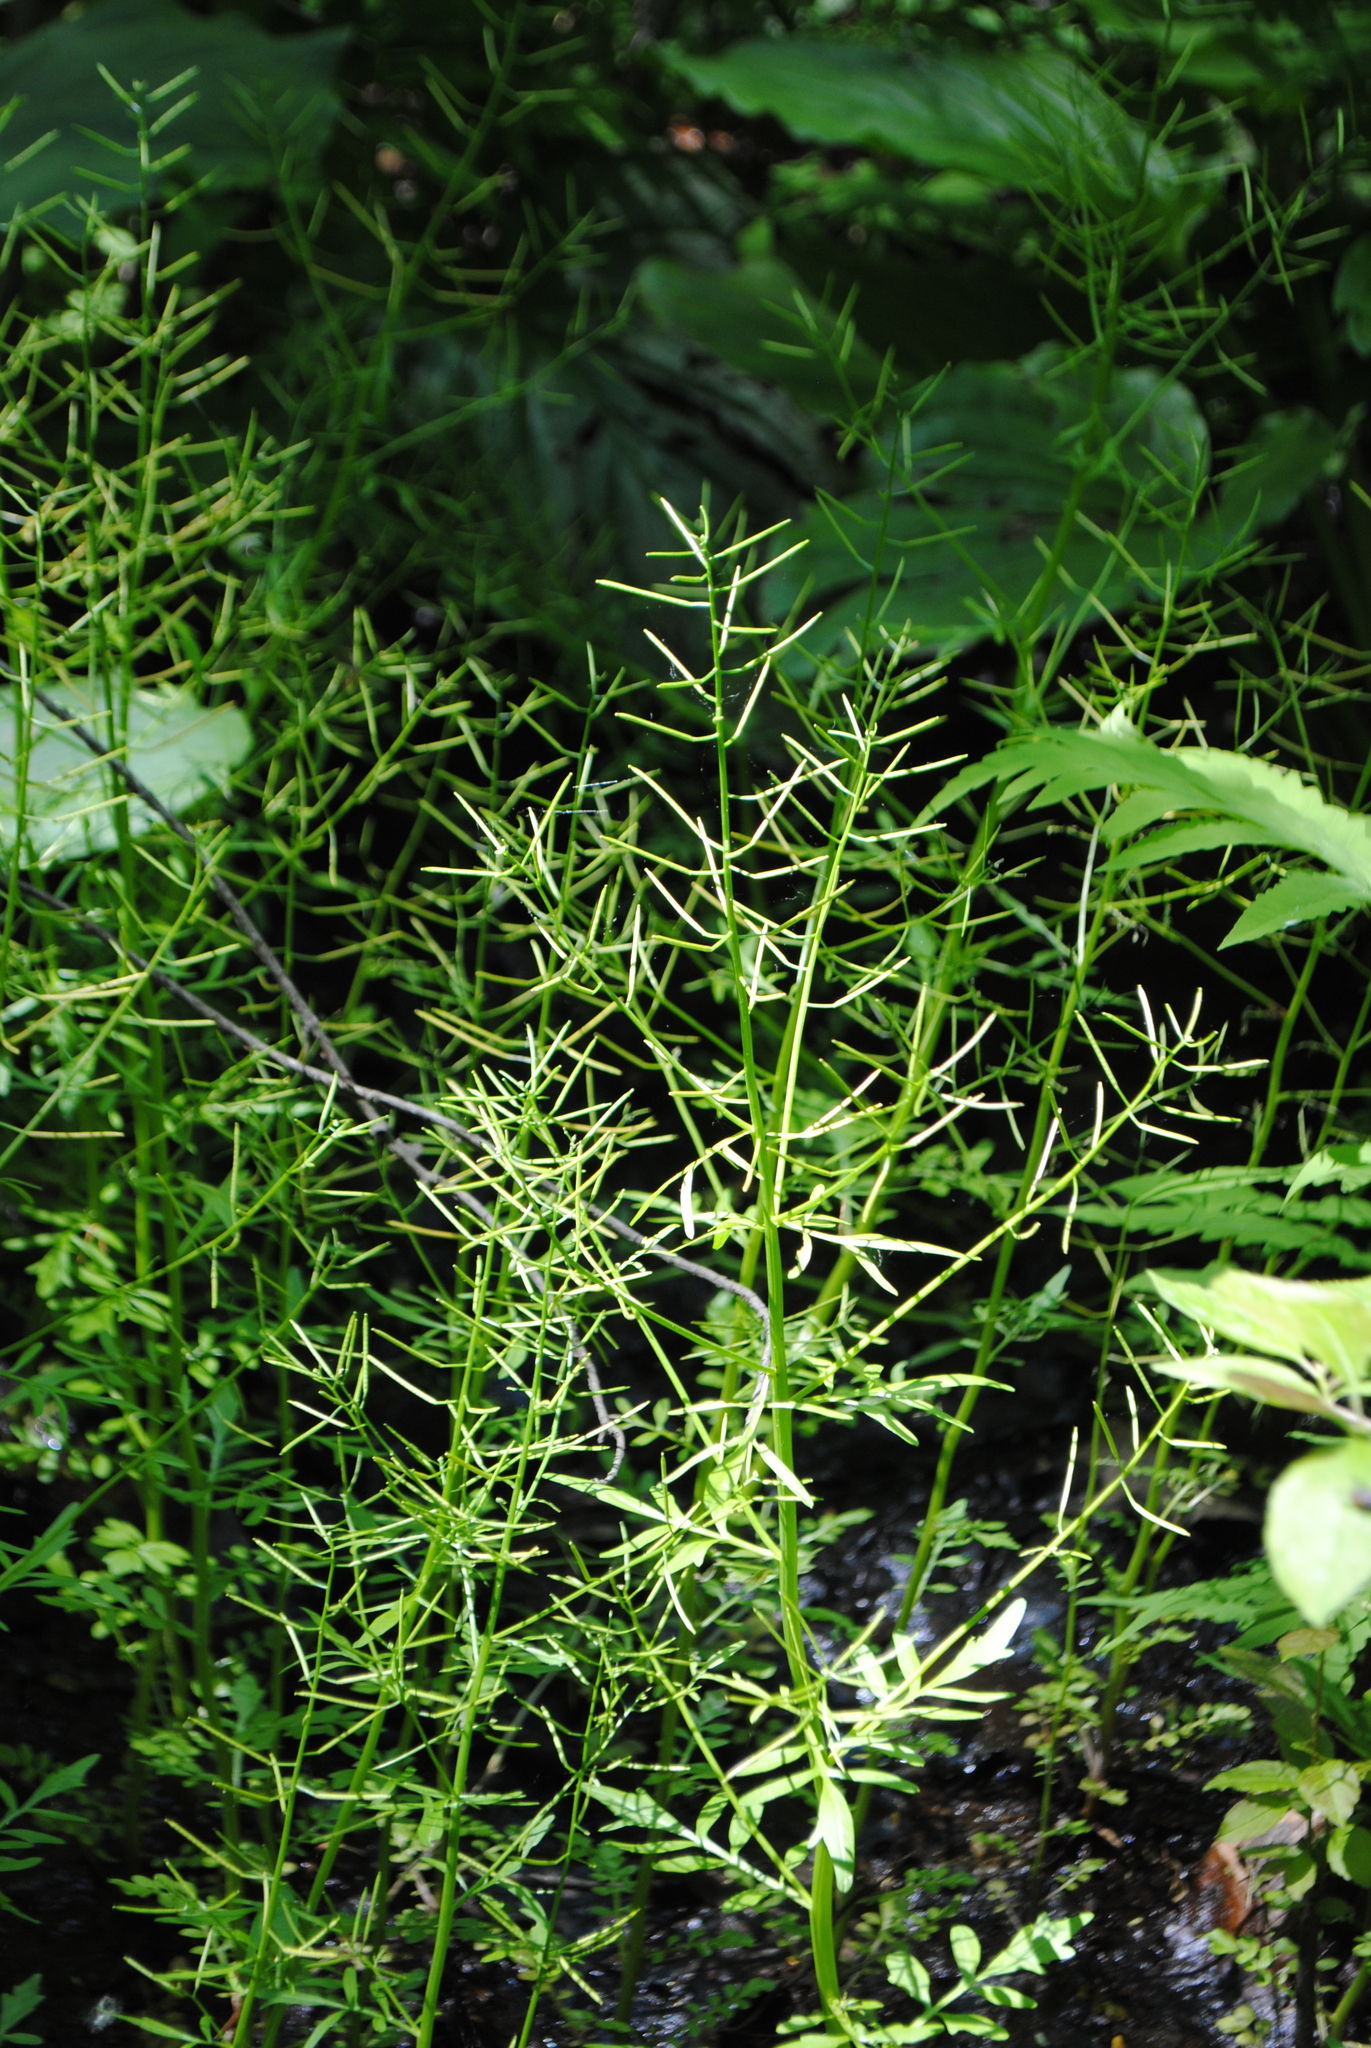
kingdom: Plantae
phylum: Tracheophyta
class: Magnoliopsida
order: Brassicales
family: Brassicaceae
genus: Cardamine
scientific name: Cardamine pensylvanica
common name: Pennsylvania bittercress
